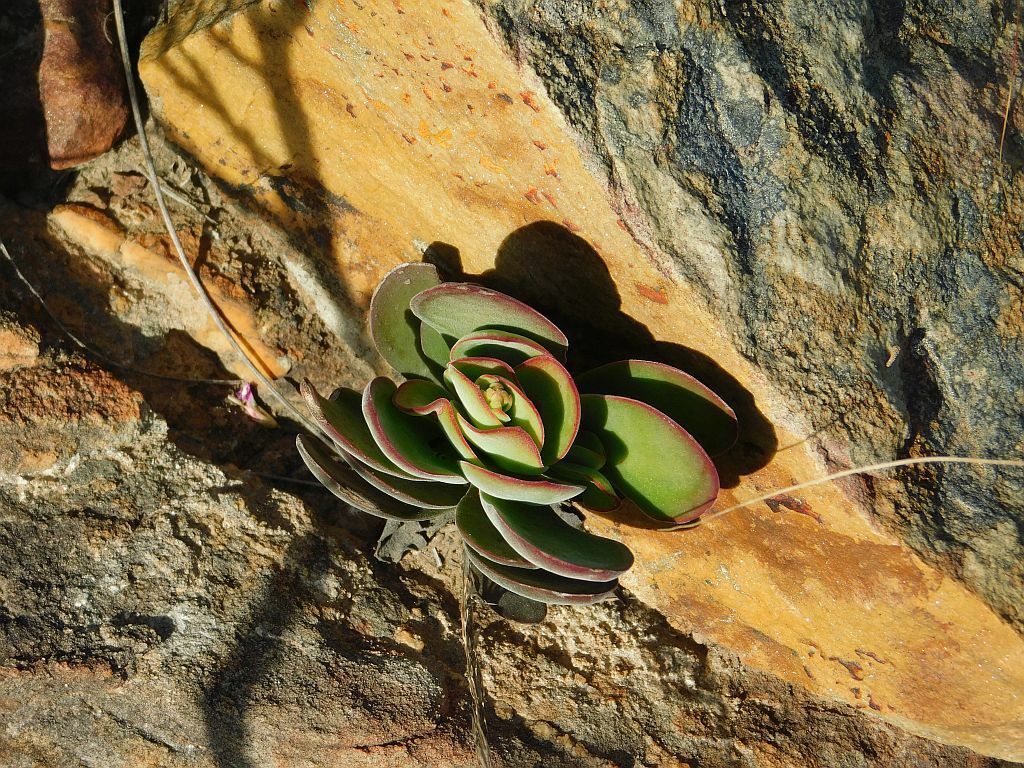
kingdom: Plantae
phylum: Tracheophyta
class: Magnoliopsida
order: Saxifragales
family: Crassulaceae
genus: Crassula
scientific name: Crassula atropurpurea
